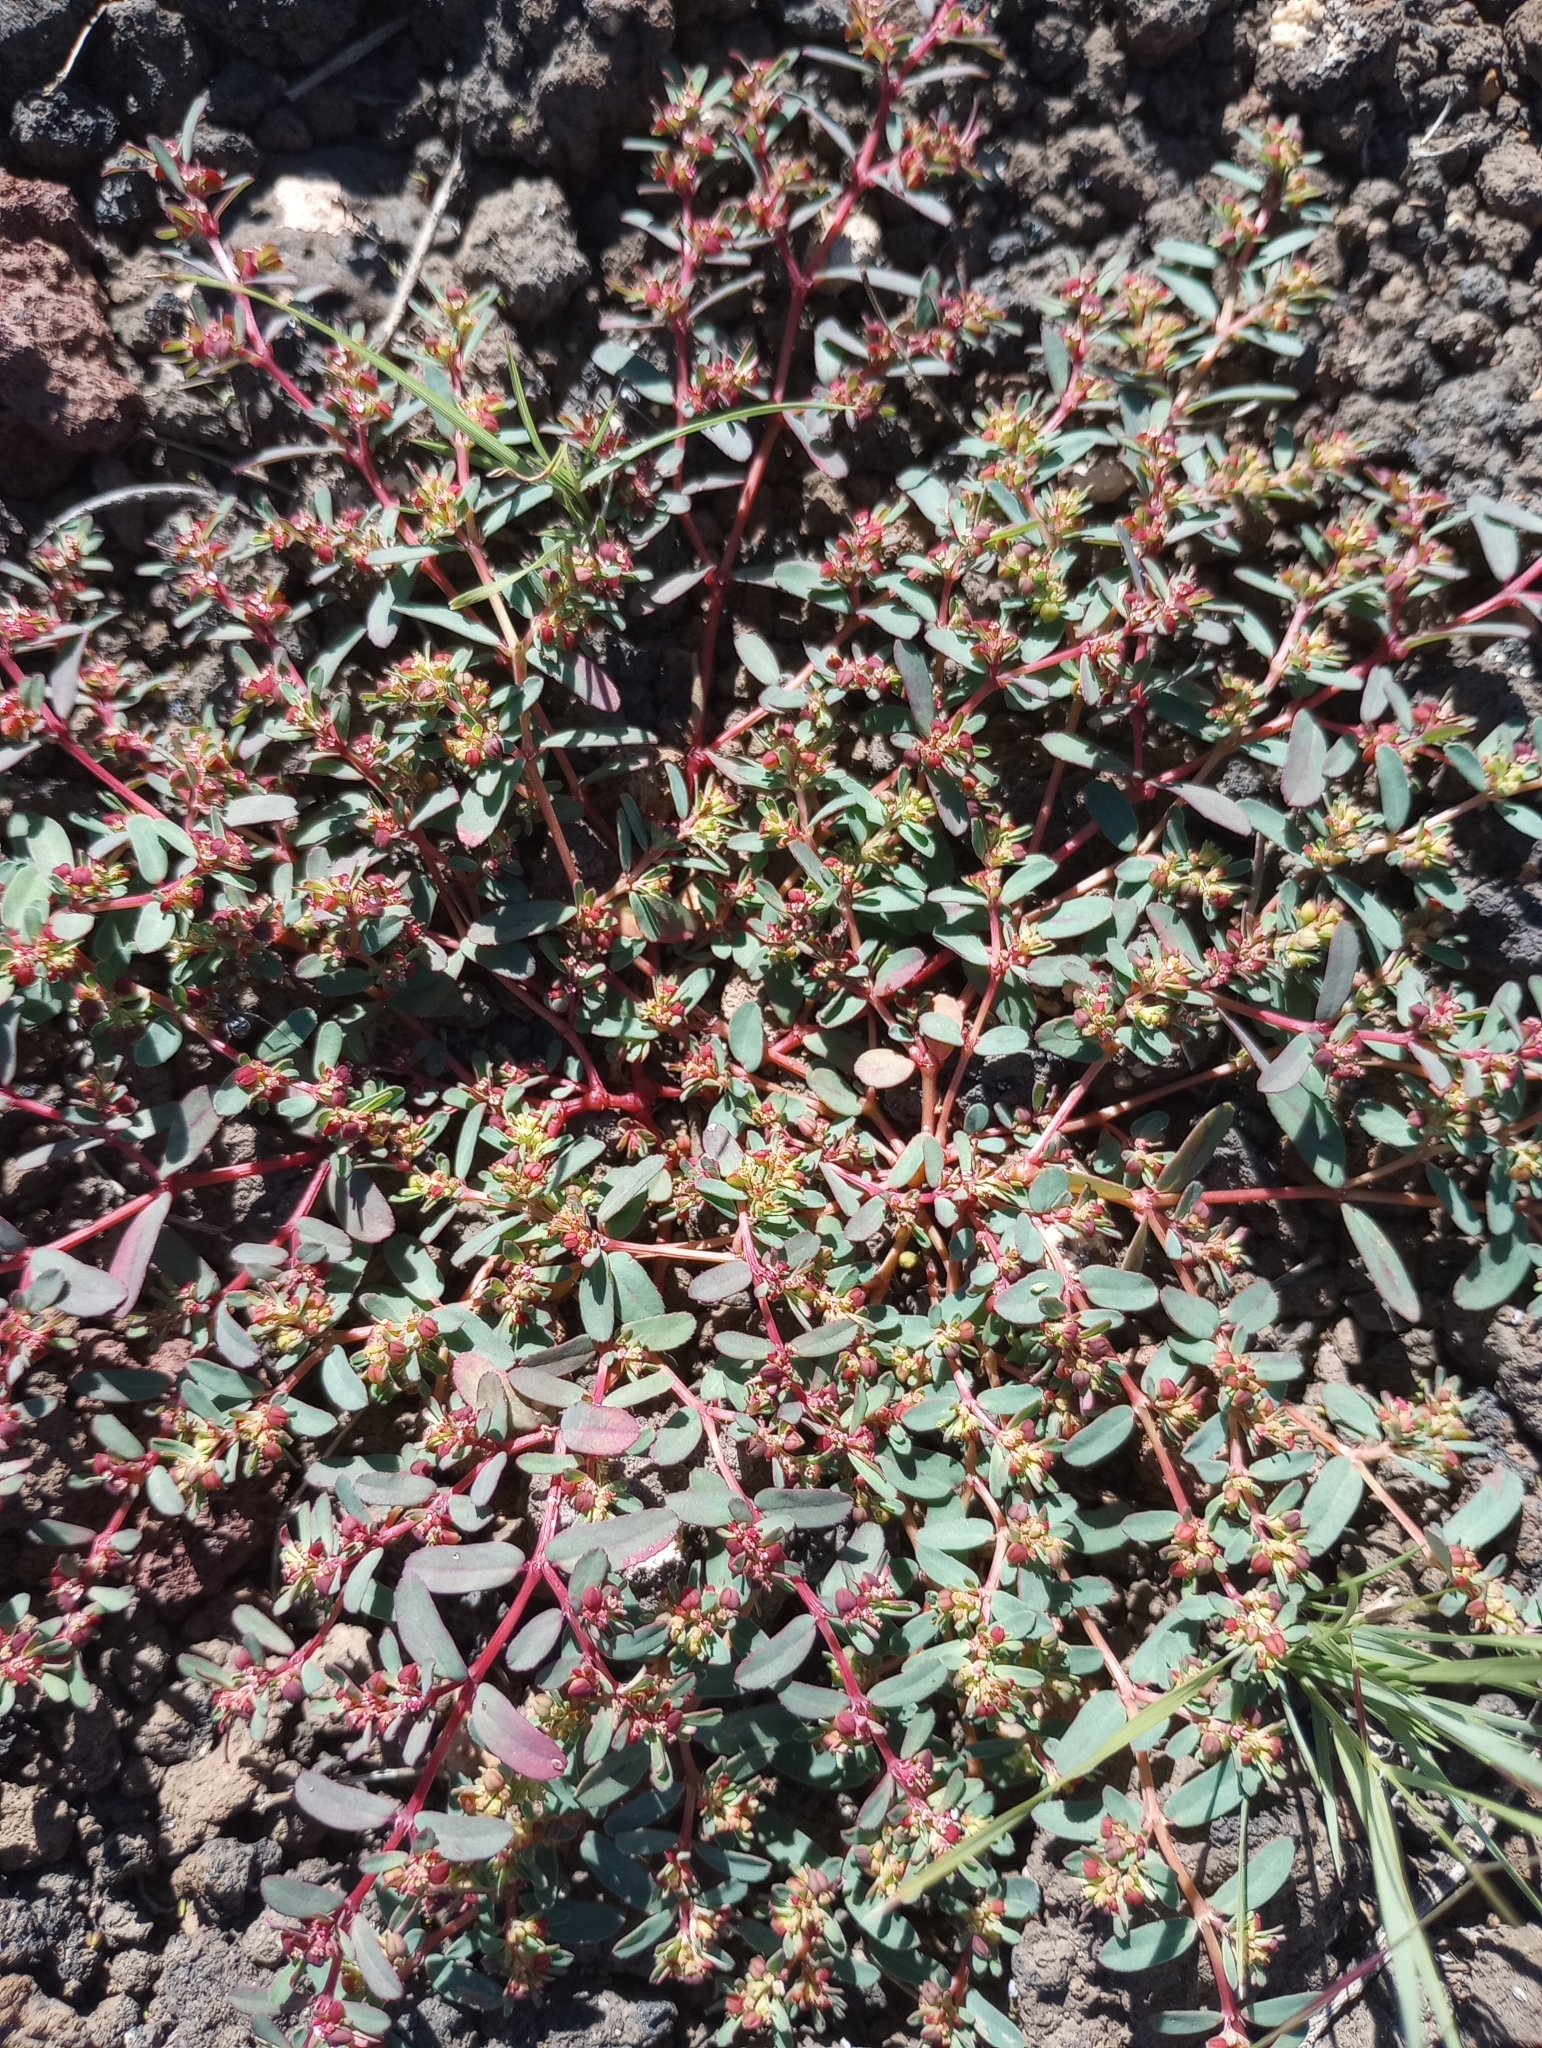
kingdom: Plantae
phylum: Tracheophyta
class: Magnoliopsida
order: Malpighiales
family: Euphorbiaceae
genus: Euphorbia
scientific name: Euphorbia serpillifolia
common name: Thyme-leaf spurge
